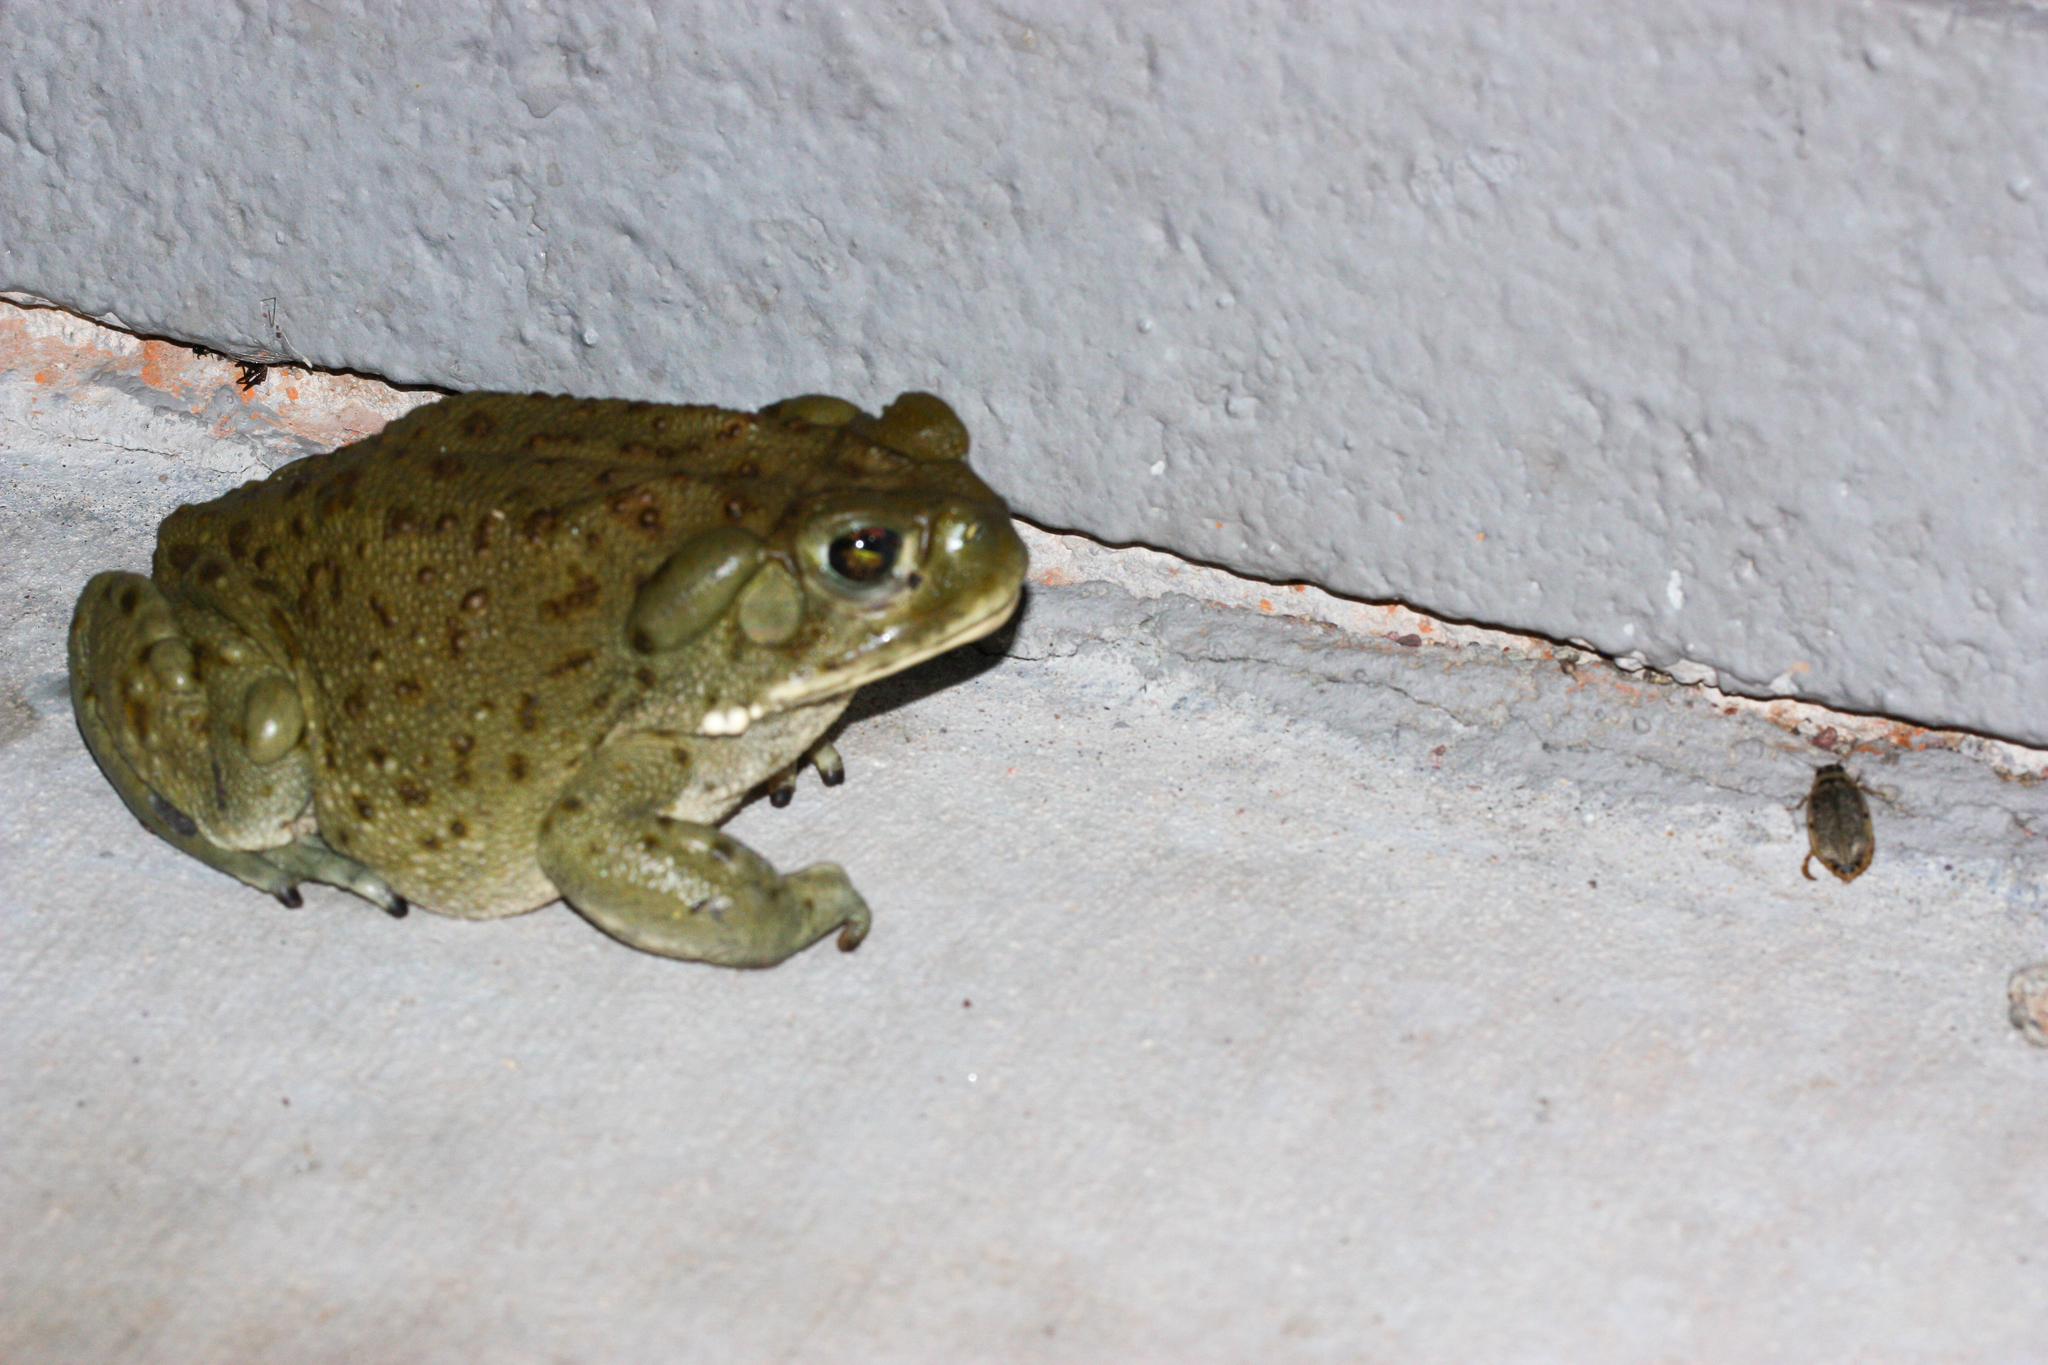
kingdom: Animalia
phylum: Chordata
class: Amphibia
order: Anura
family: Bufonidae
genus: Incilius
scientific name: Incilius alvarius
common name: Sonoran desert toad
